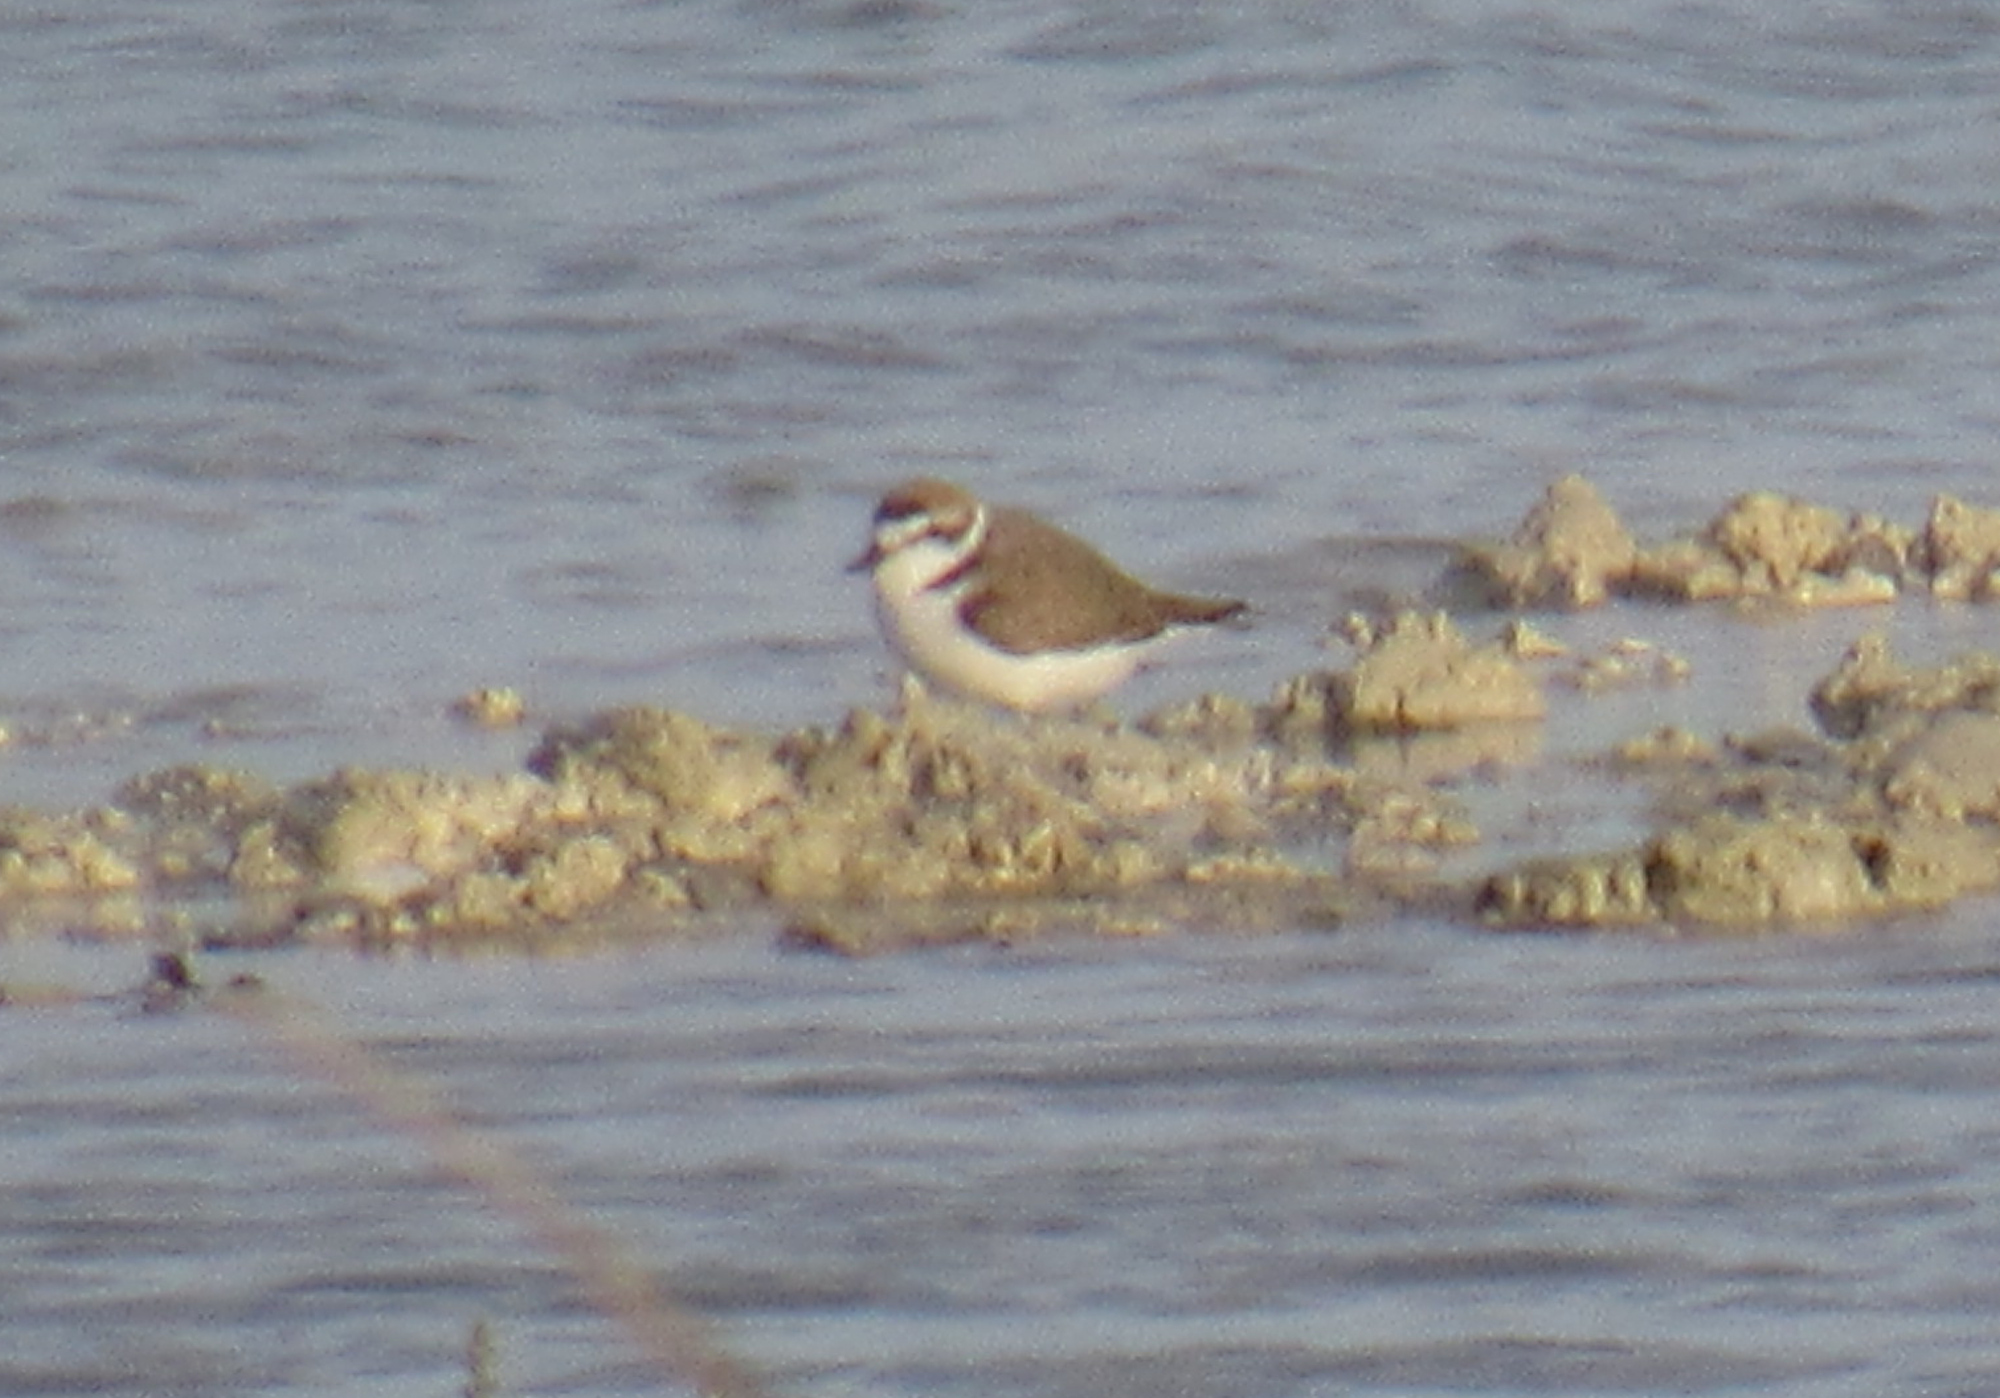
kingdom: Animalia
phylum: Chordata
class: Aves
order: Charadriiformes
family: Charadriidae
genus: Anarhynchus
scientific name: Anarhynchus
